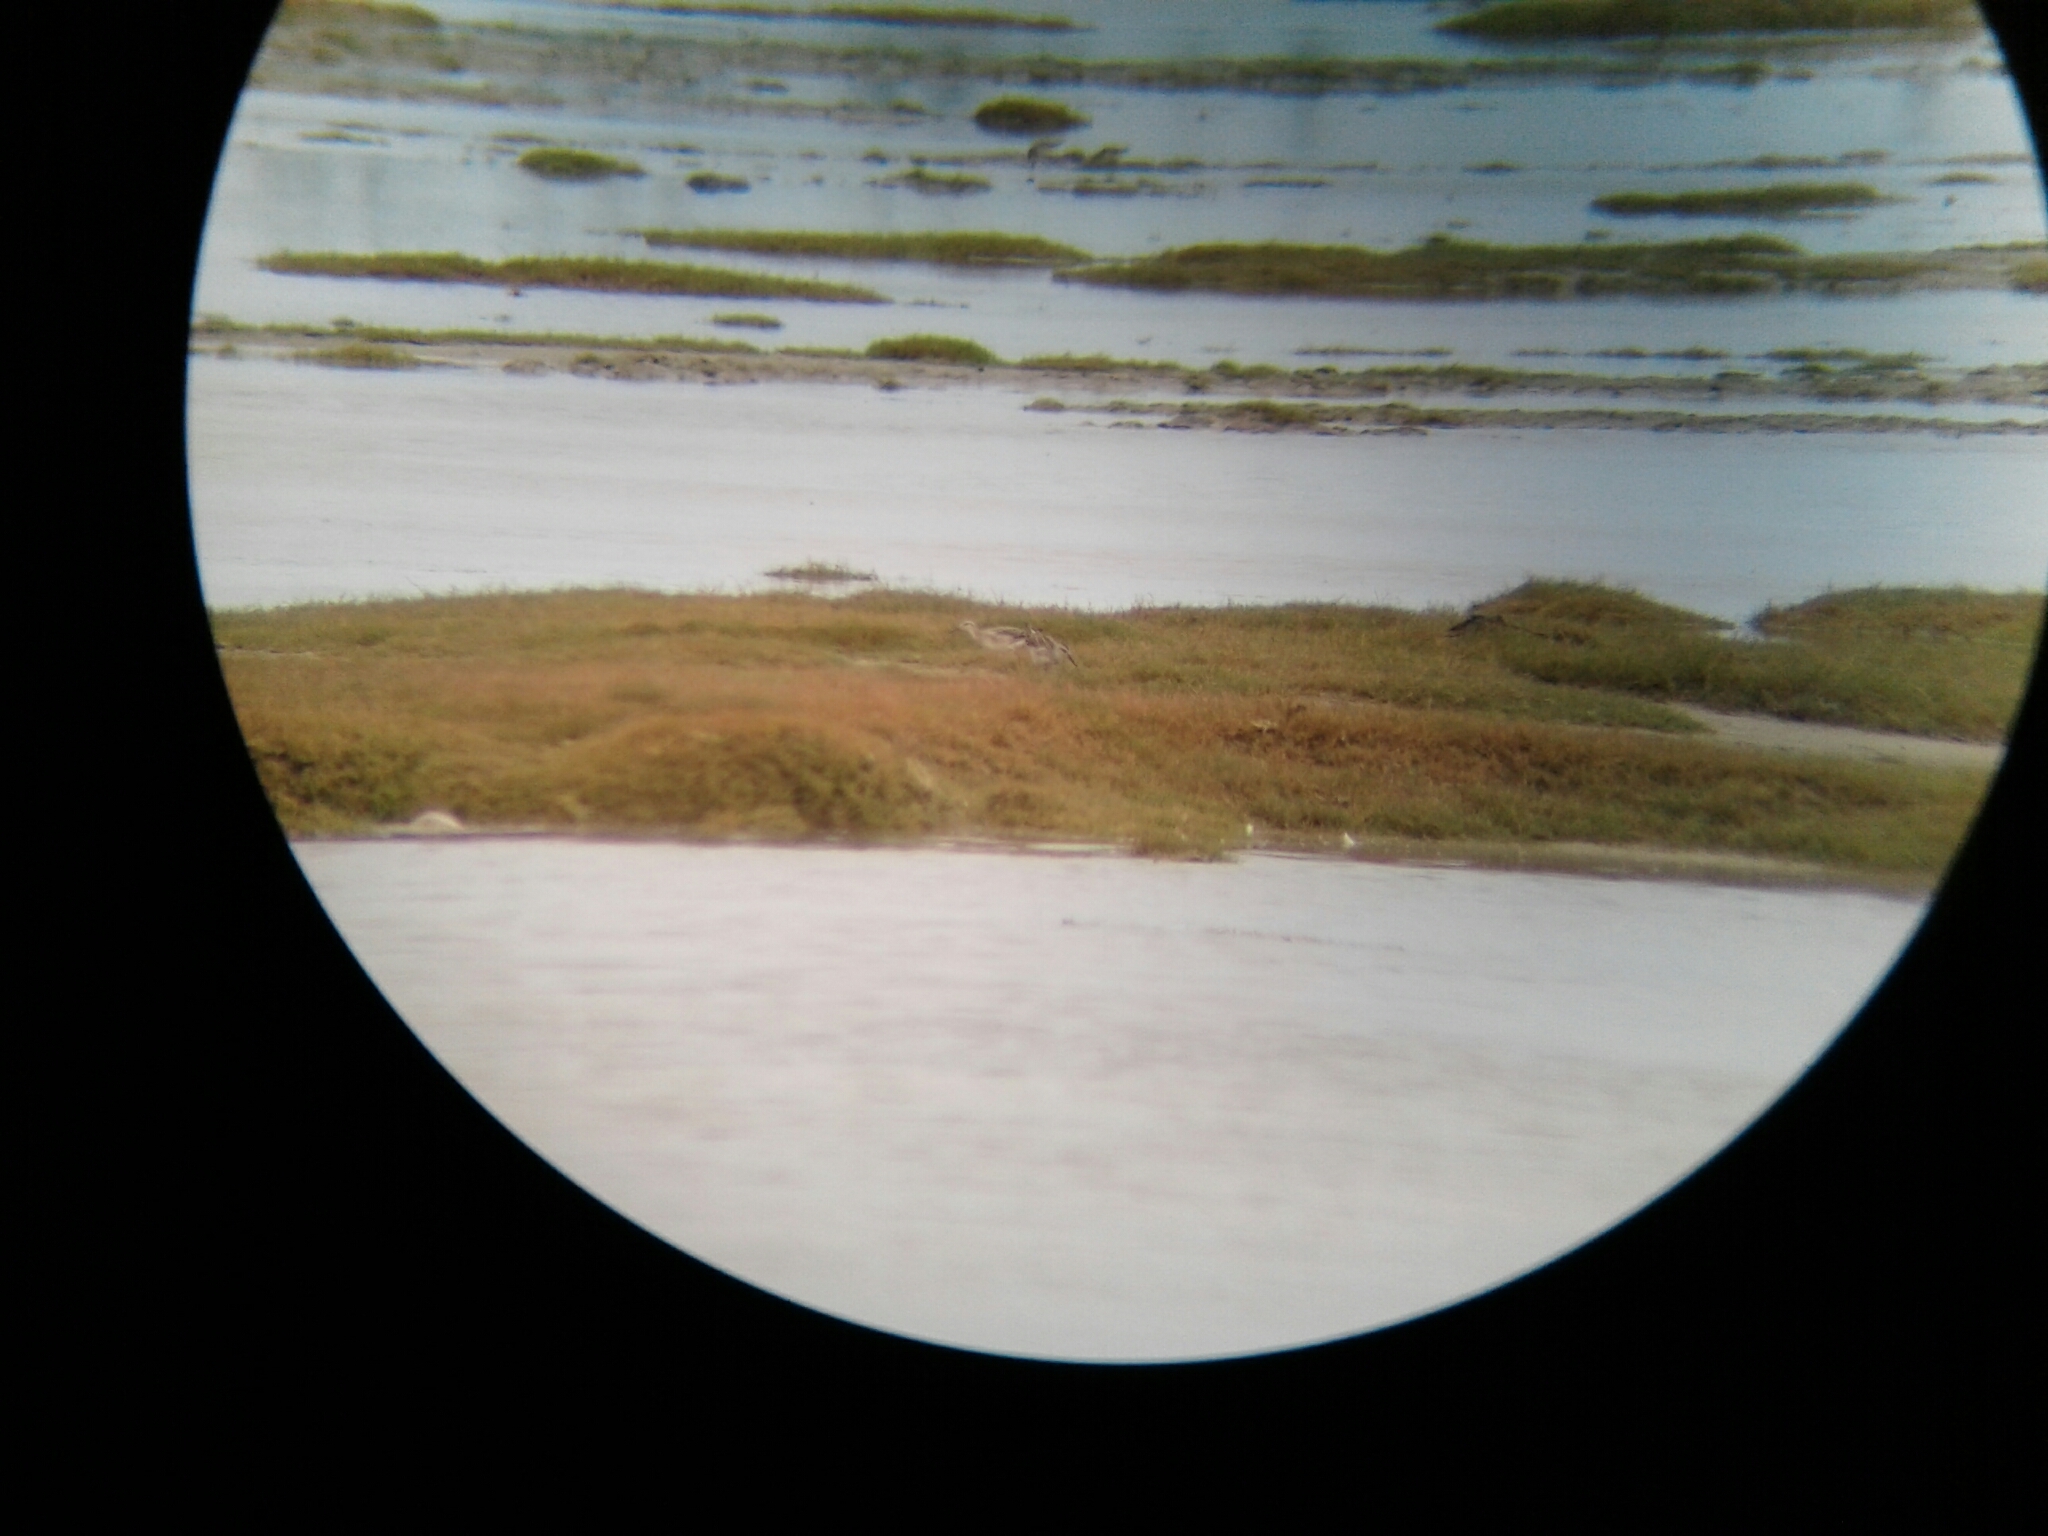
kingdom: Animalia
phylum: Chordata
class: Aves
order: Charadriiformes
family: Scolopacidae
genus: Phalaropus
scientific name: Phalaropus tricolor
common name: Wilson's phalarope
